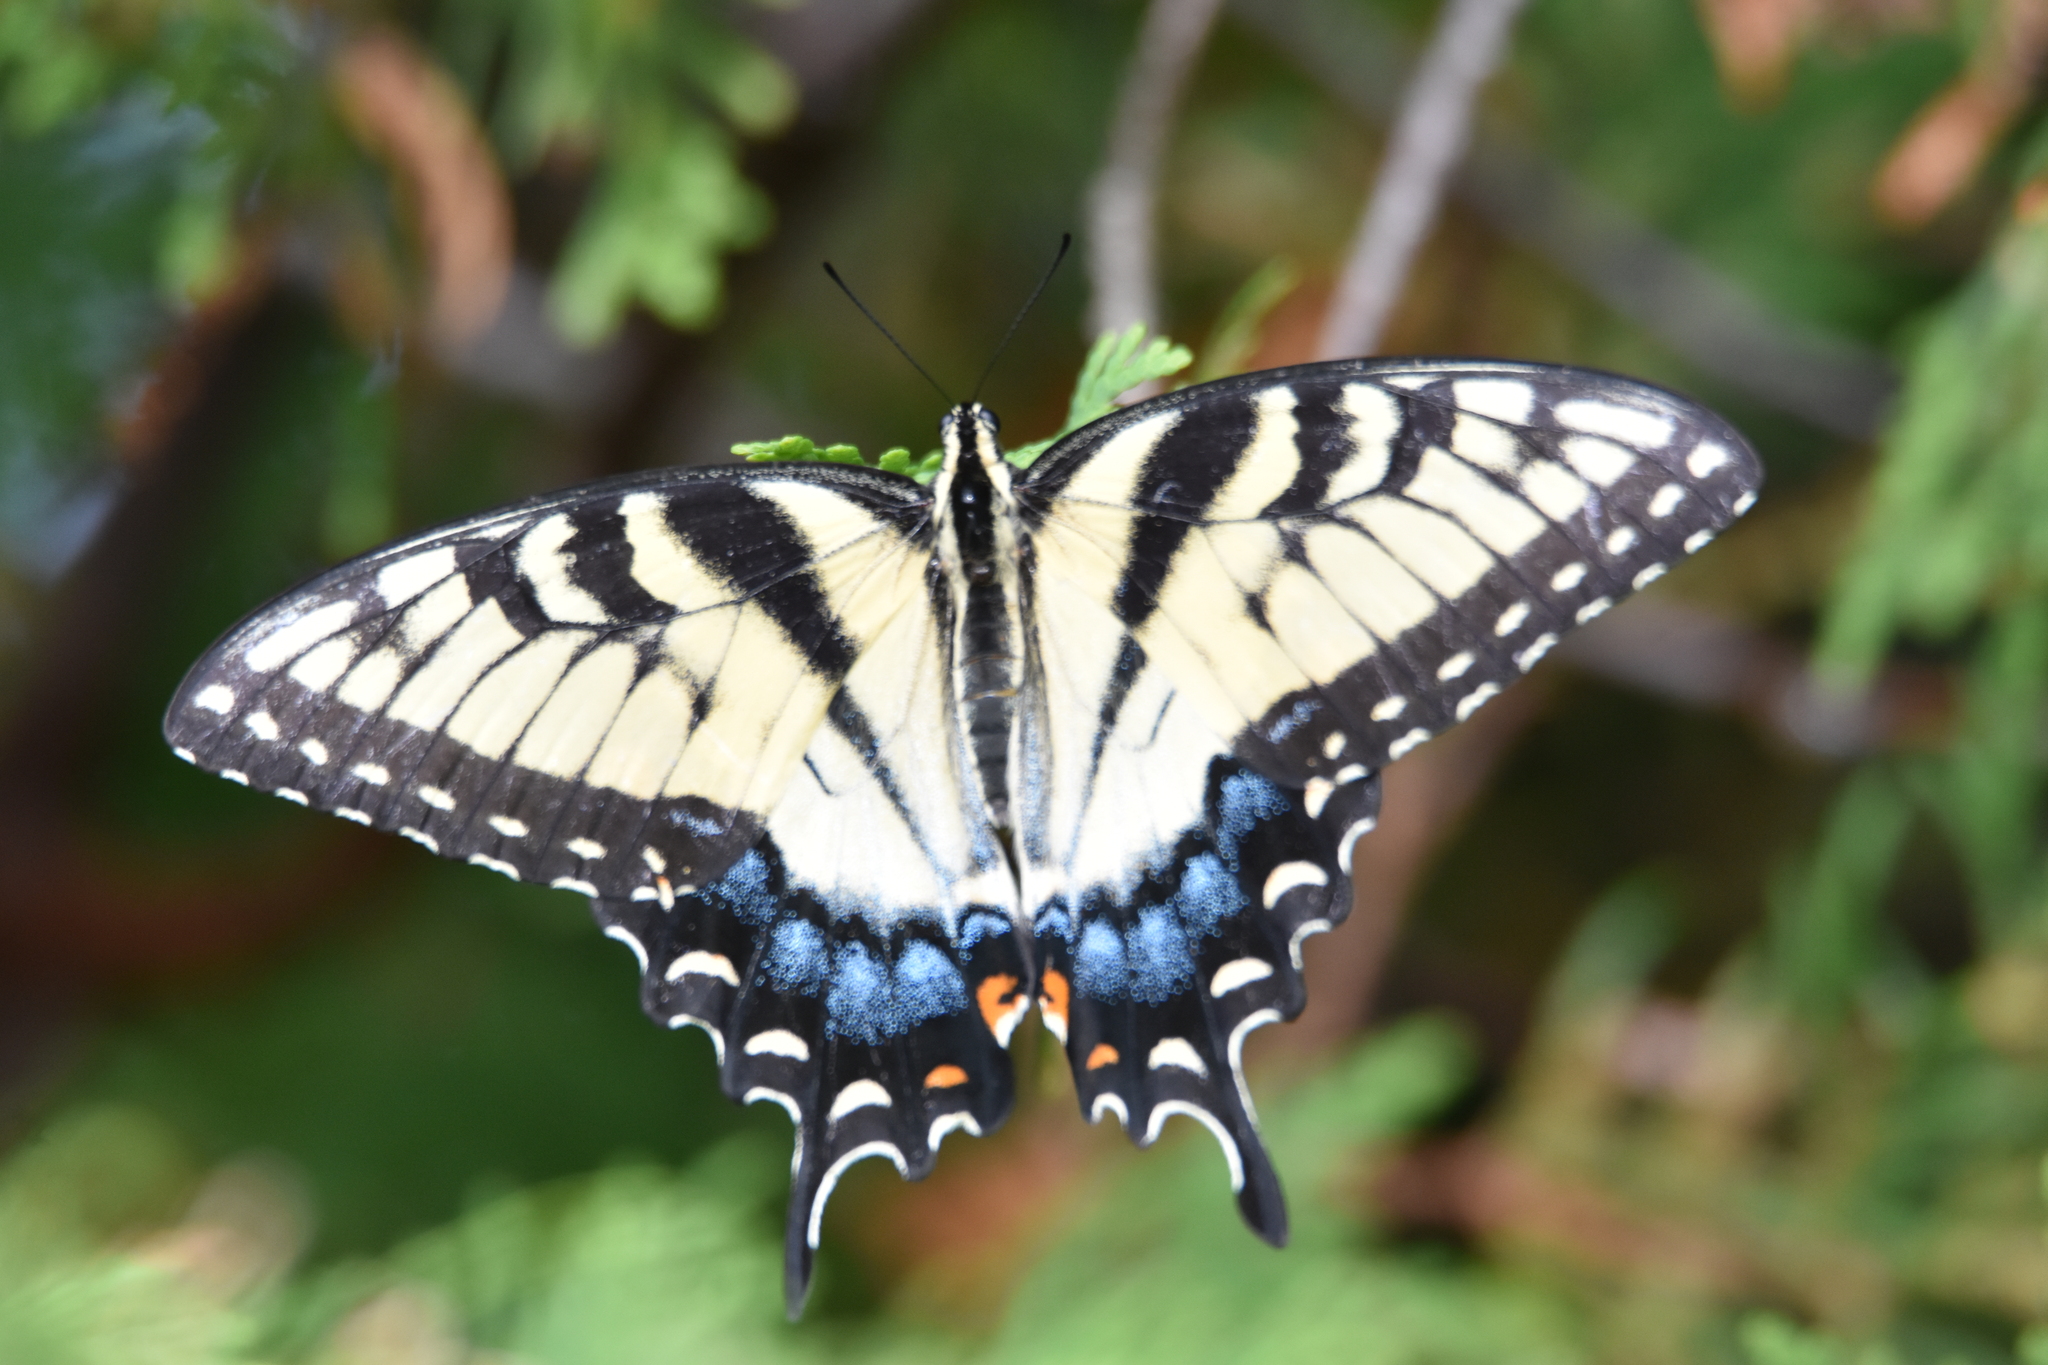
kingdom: Animalia
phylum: Arthropoda
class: Insecta
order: Lepidoptera
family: Papilionidae
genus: Papilio
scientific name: Papilio glaucus
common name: Tiger swallowtail
